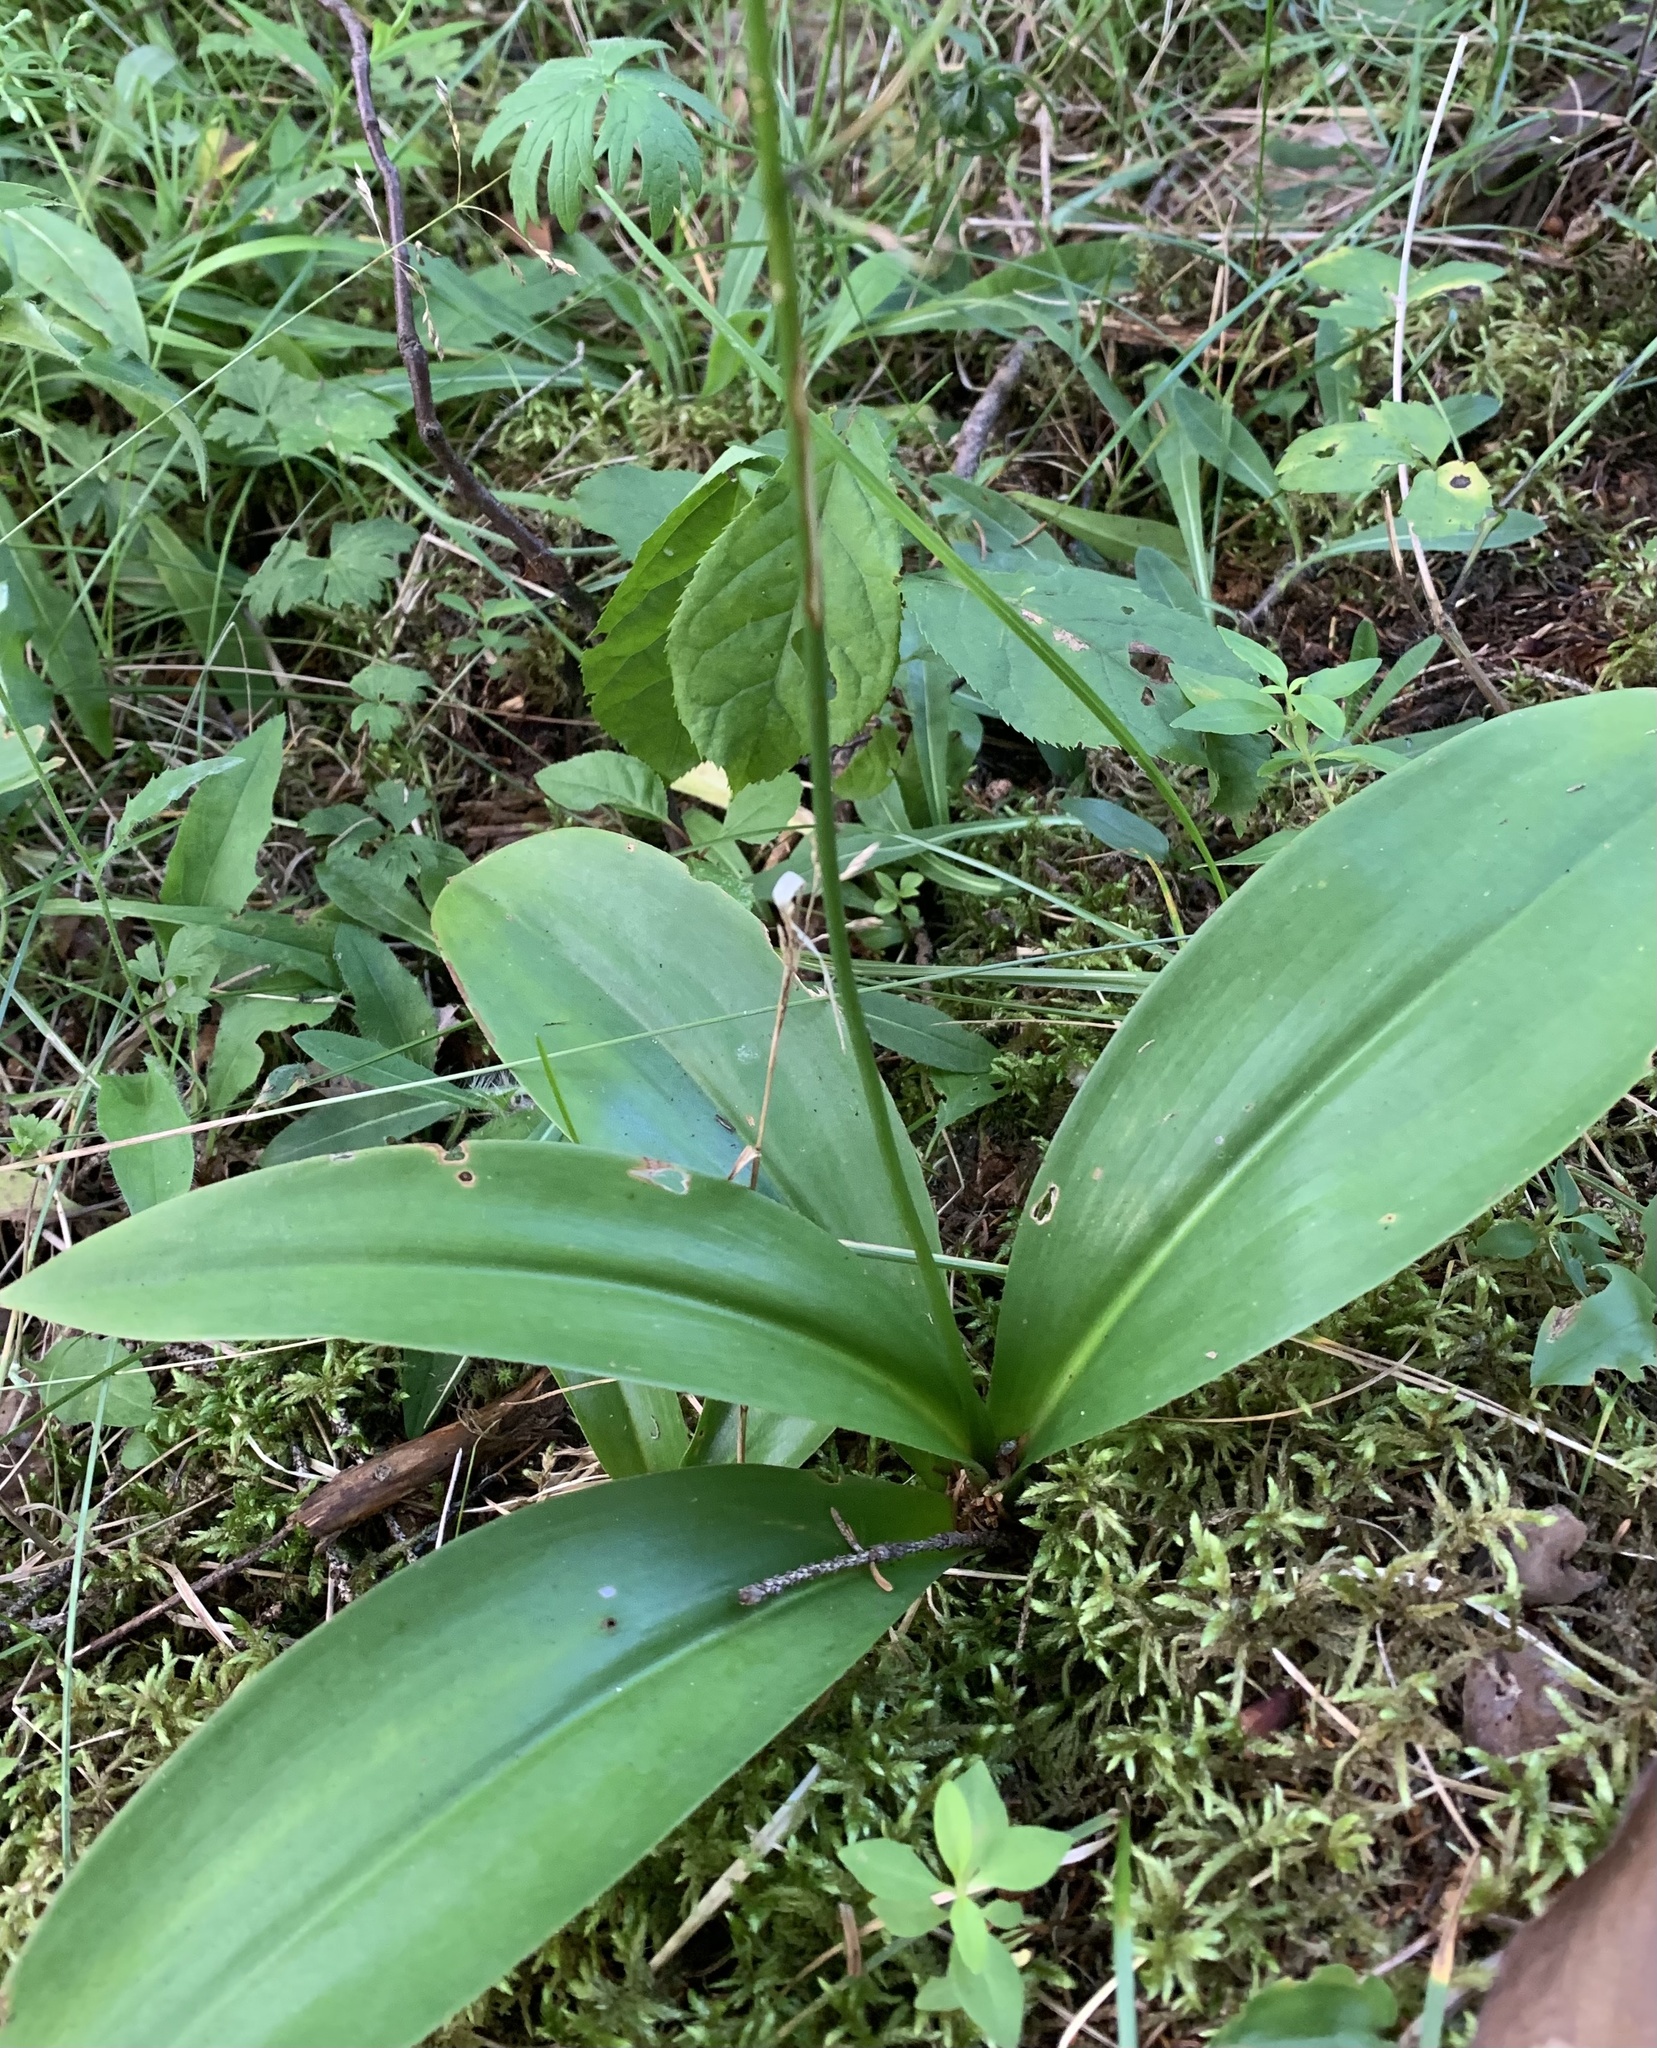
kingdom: Plantae
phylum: Tracheophyta
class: Liliopsida
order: Liliales
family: Liliaceae
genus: Clintonia
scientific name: Clintonia borealis
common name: Yellow clintonia
